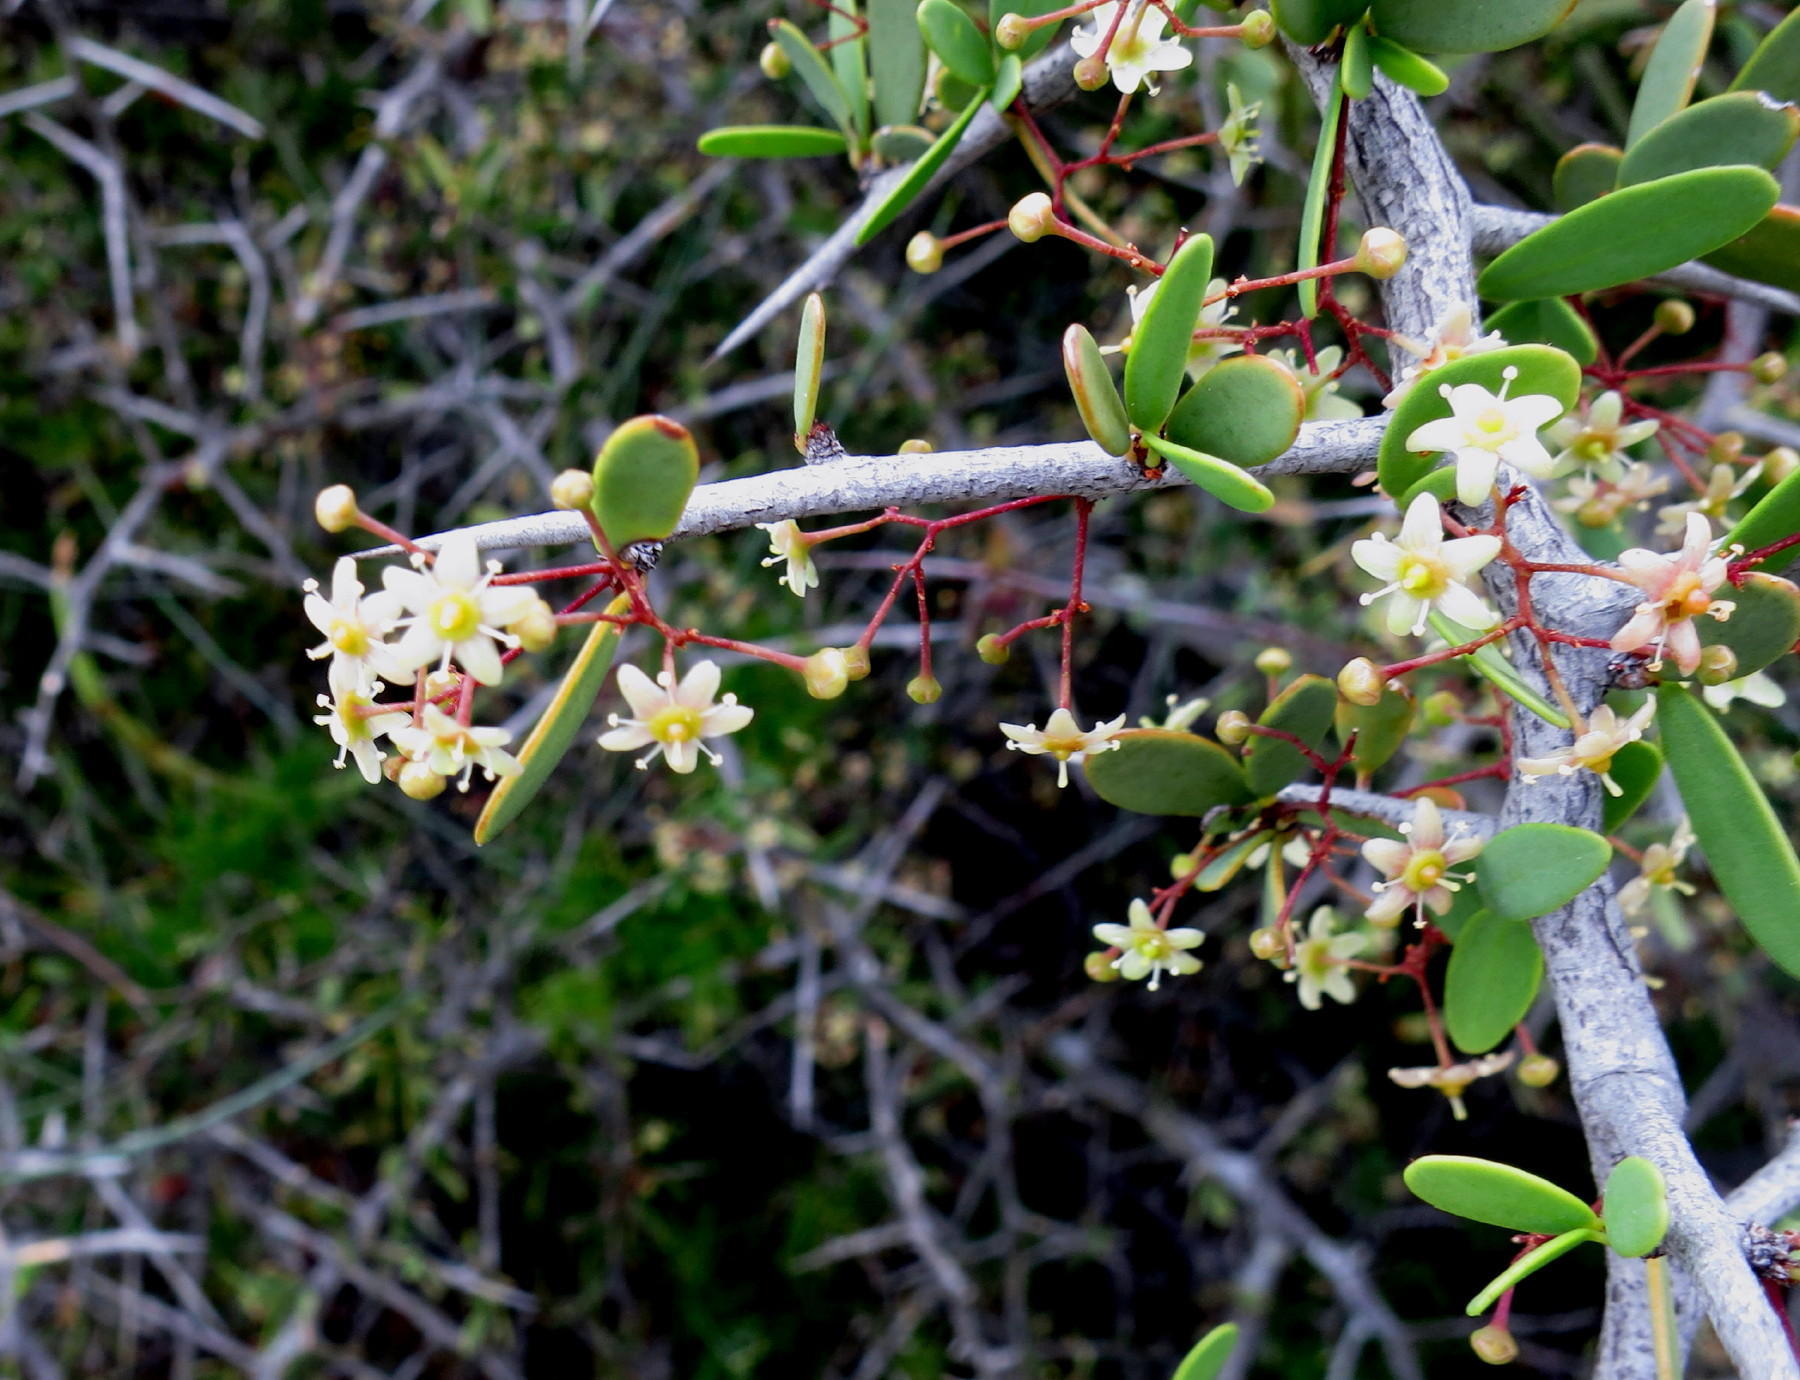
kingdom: Plantae
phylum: Tracheophyta
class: Magnoliopsida
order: Celastrales
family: Celastraceae
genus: Gloveria
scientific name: Gloveria integrifolia
